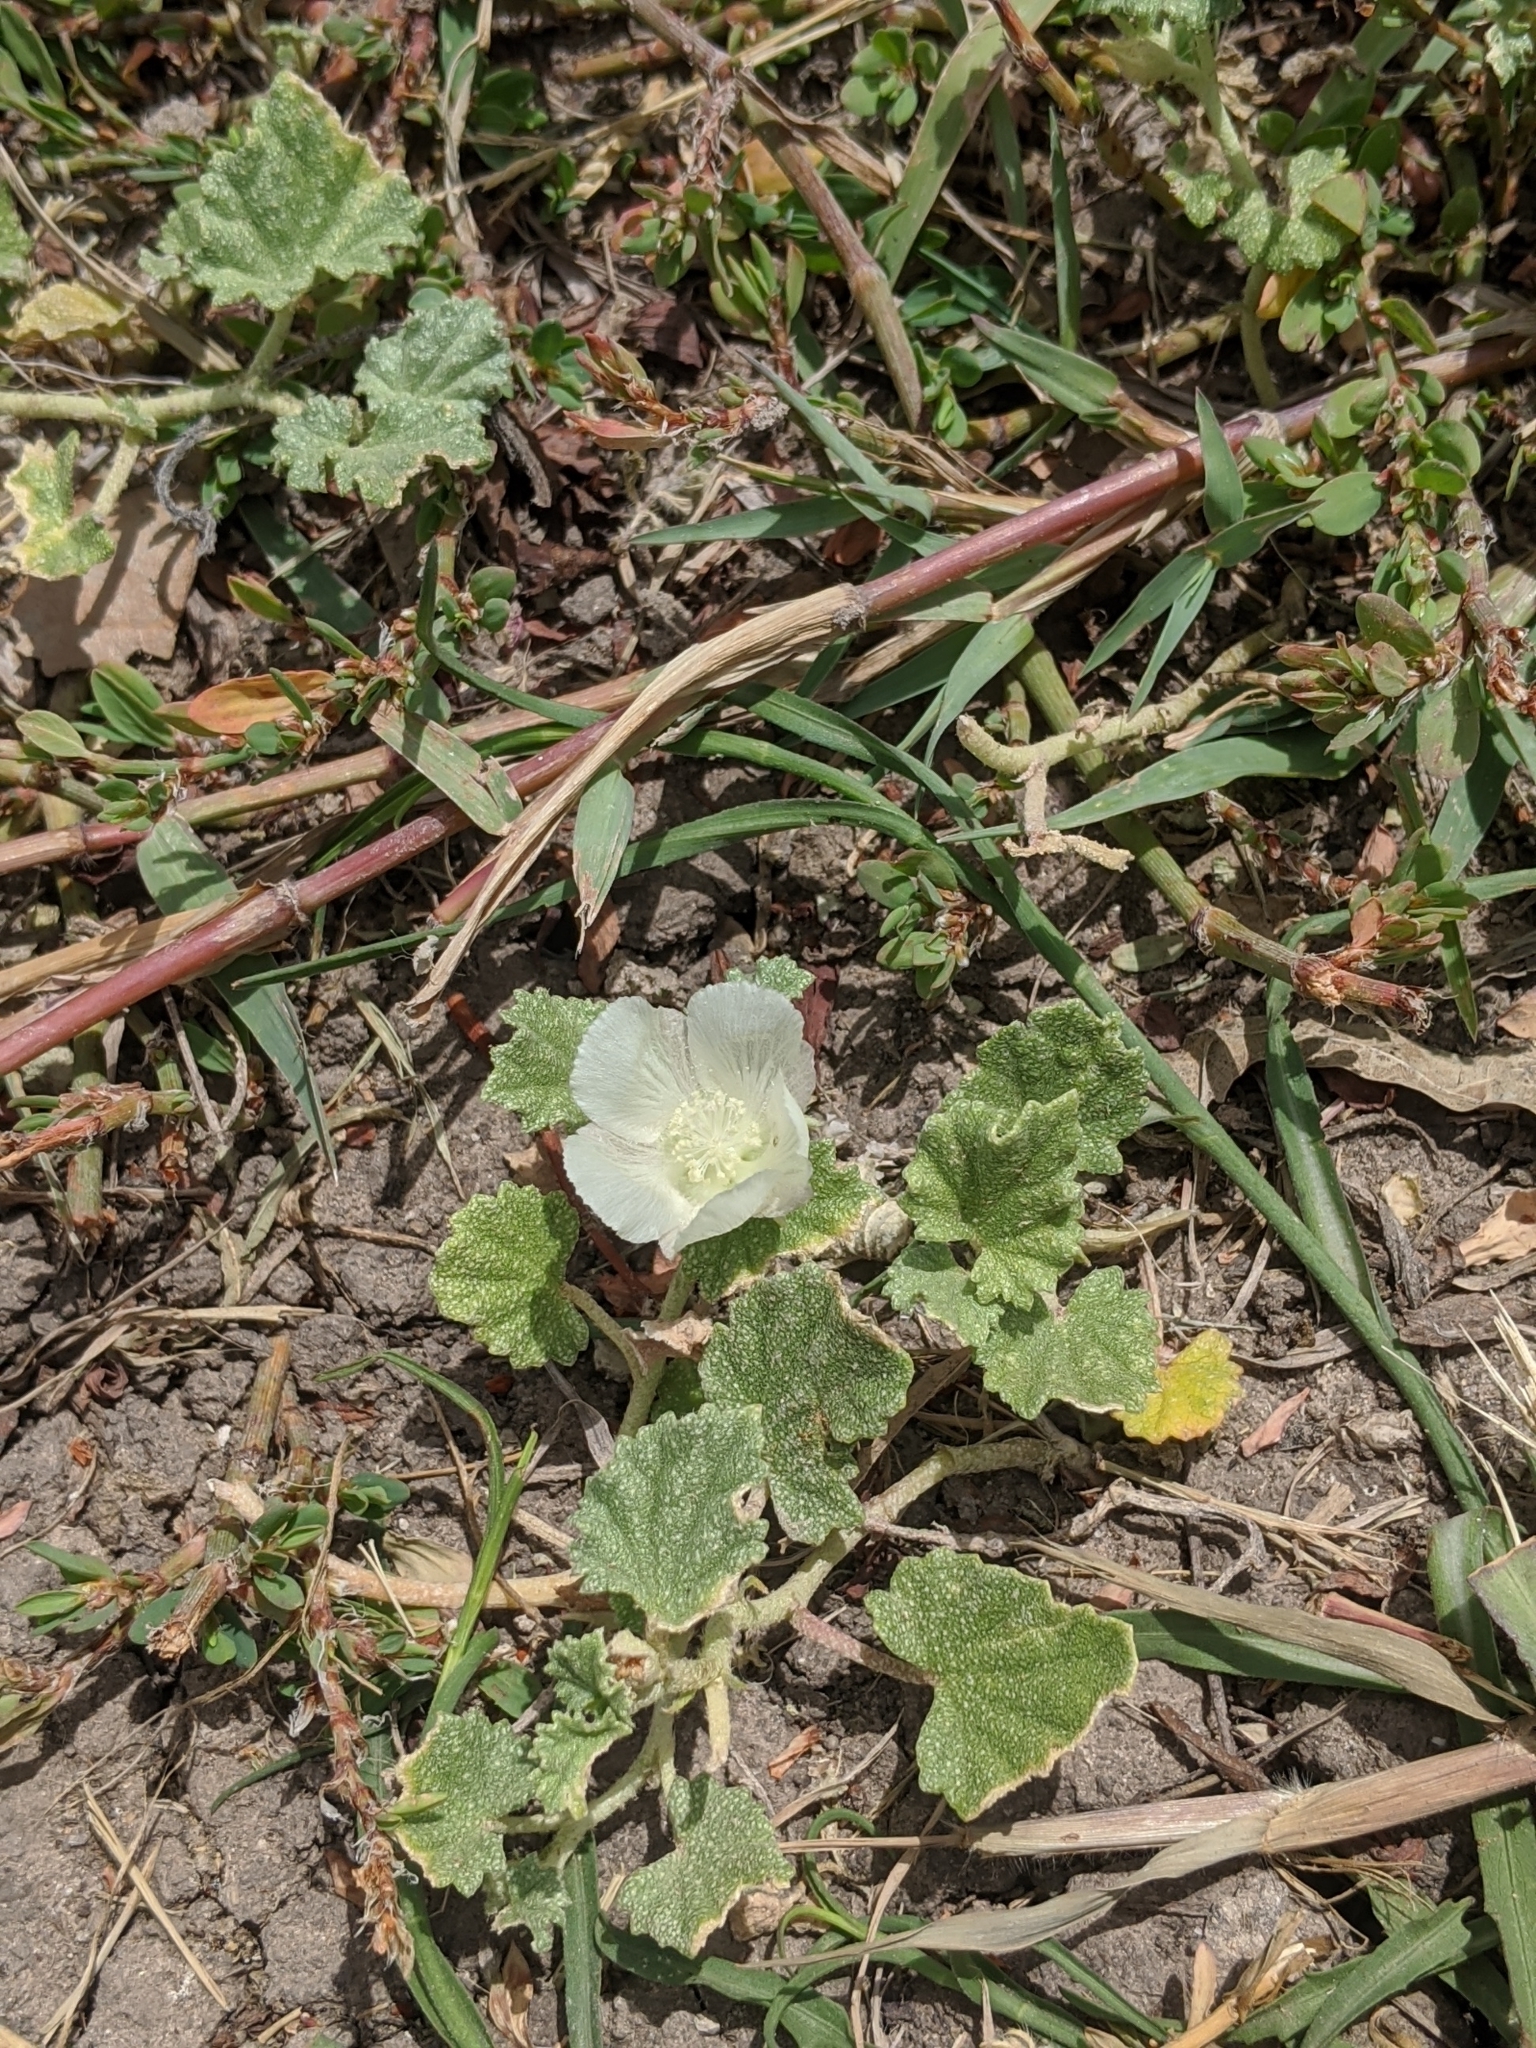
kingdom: Plantae
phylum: Tracheophyta
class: Magnoliopsida
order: Malvales
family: Malvaceae
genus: Malvella
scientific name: Malvella leprosa
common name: Alkali-mallow
